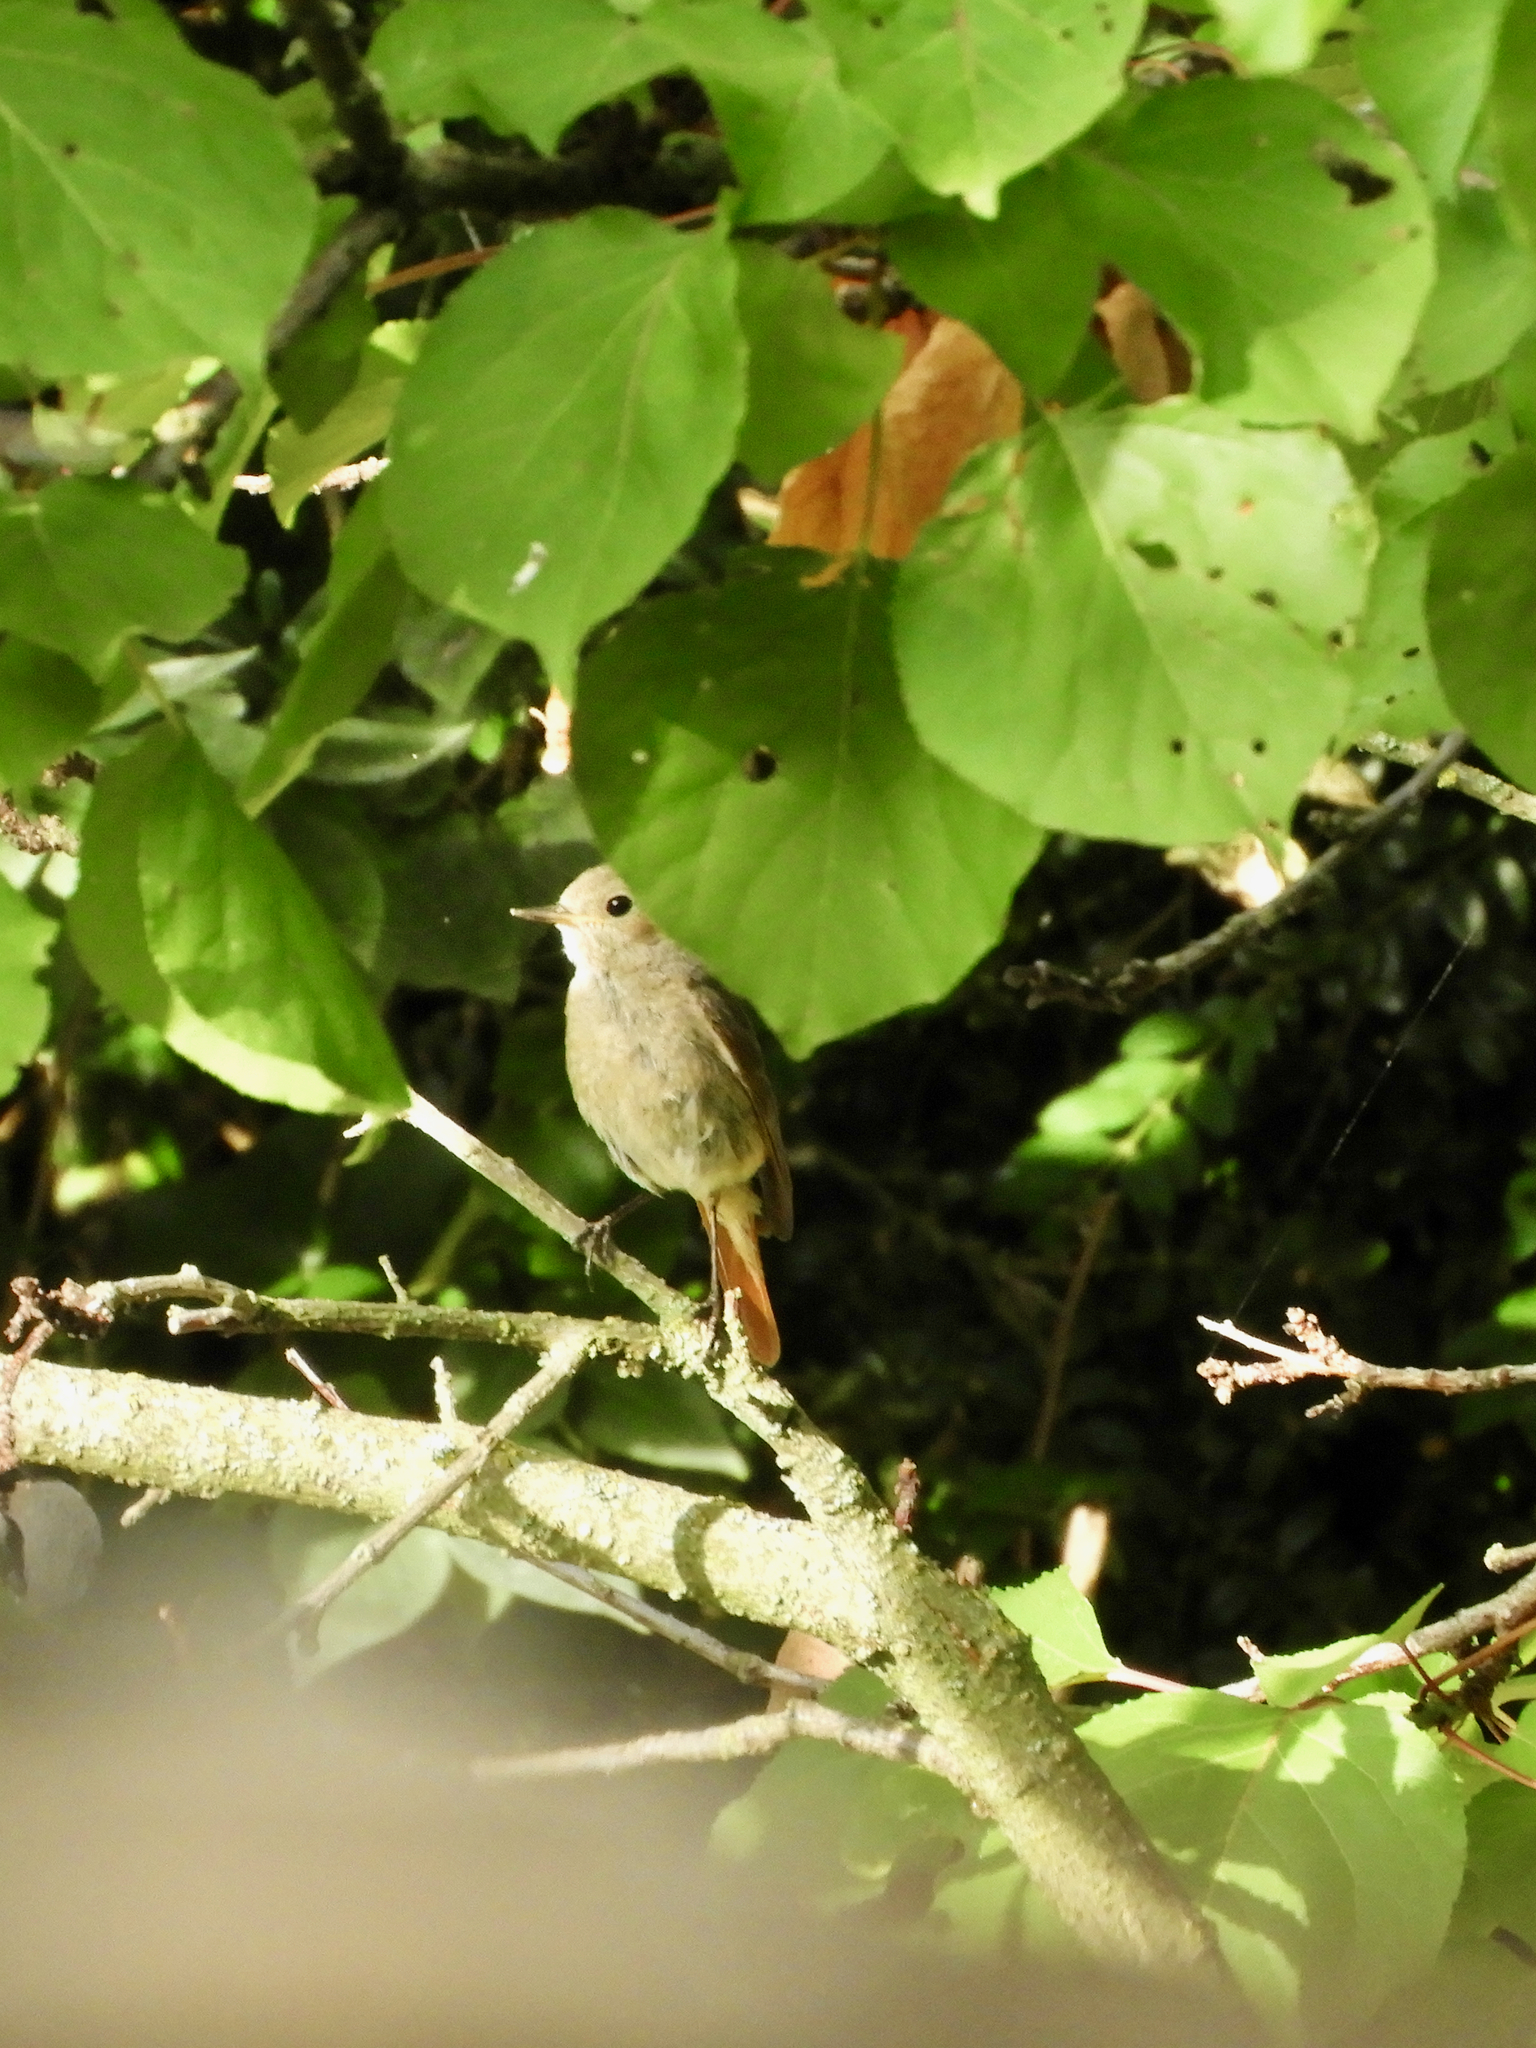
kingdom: Animalia
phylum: Chordata
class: Aves
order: Passeriformes
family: Muscicapidae
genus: Phoenicurus
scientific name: Phoenicurus ochruros
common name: Black redstart
